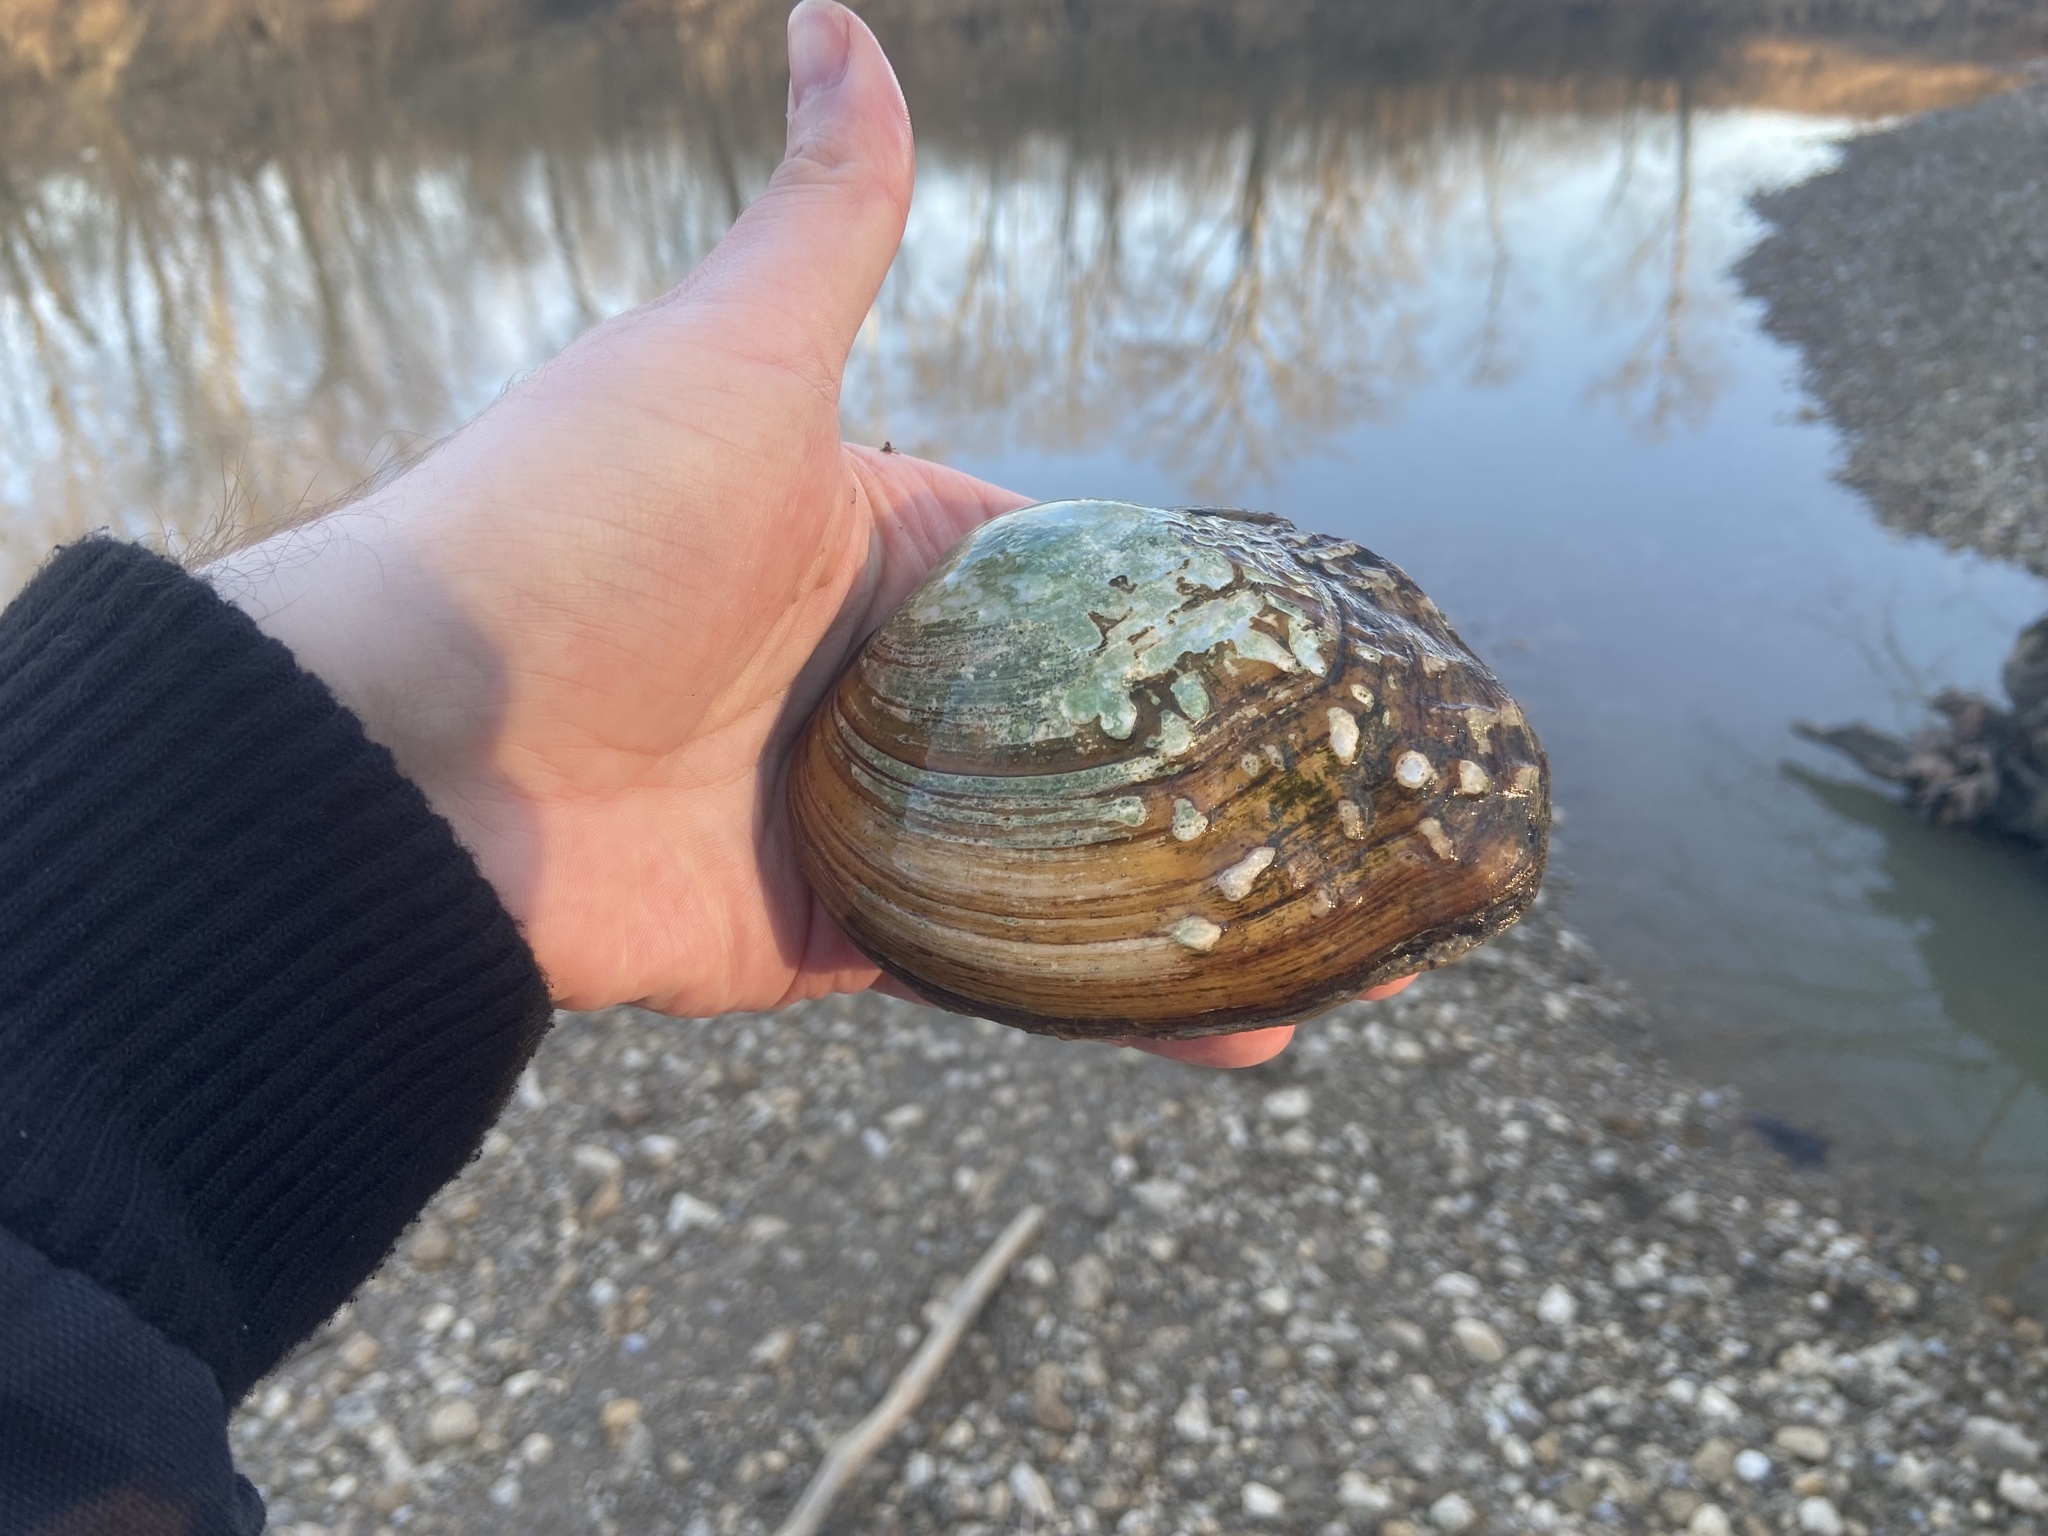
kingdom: Animalia
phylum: Mollusca
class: Bivalvia
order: Unionida
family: Unionidae
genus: Quadrula
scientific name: Quadrula quadrula
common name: Mapleleaf
